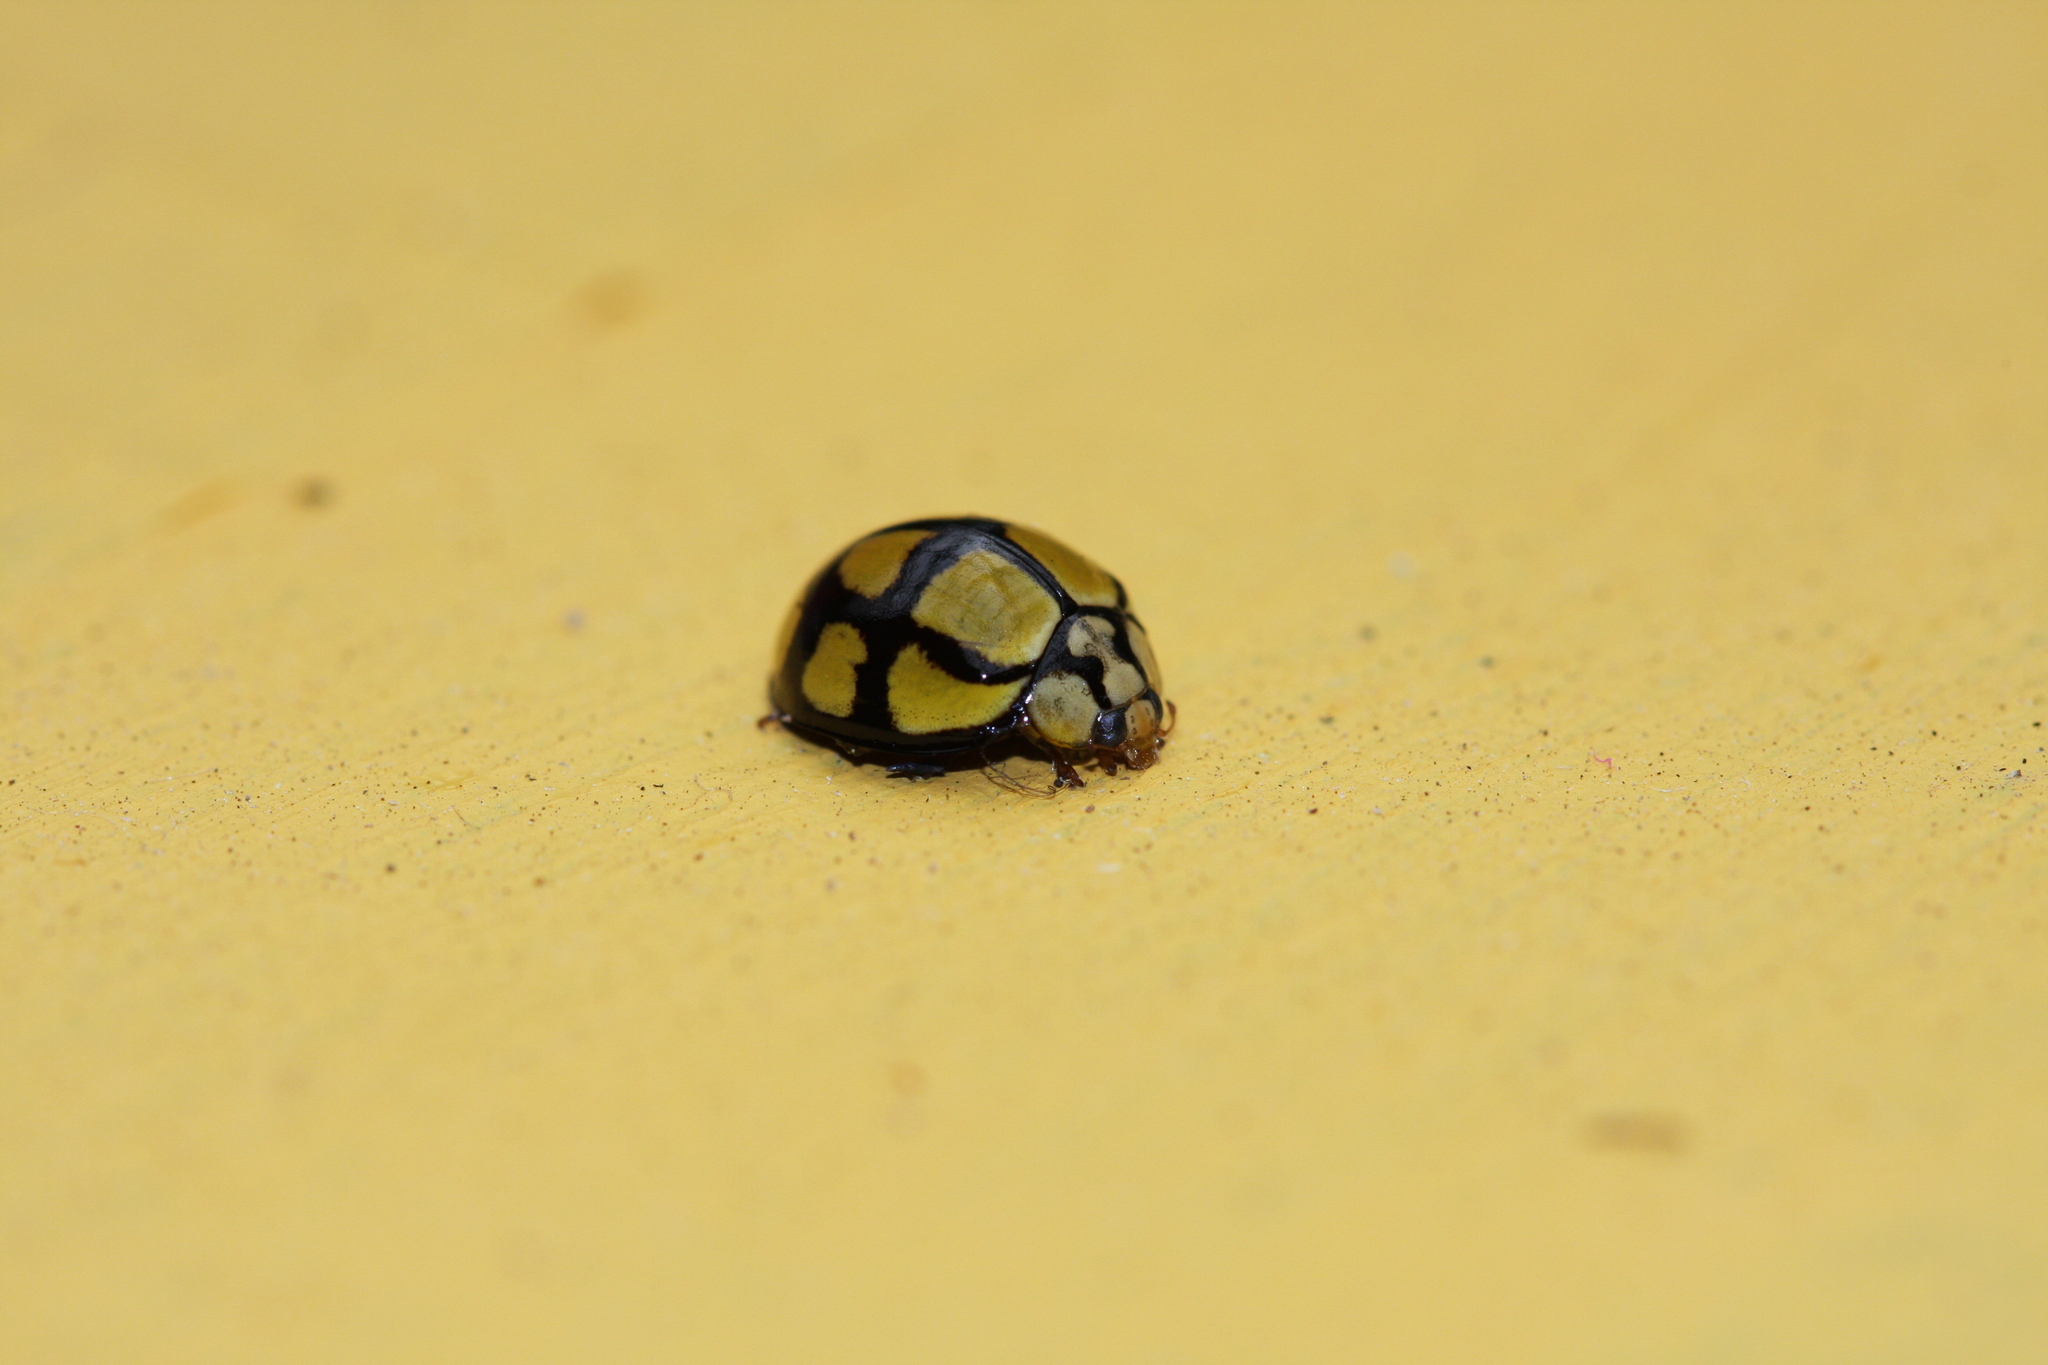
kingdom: Animalia
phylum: Arthropoda
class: Insecta
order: Coleoptera
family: Coccinellidae
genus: Harmonia
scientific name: Harmonia
